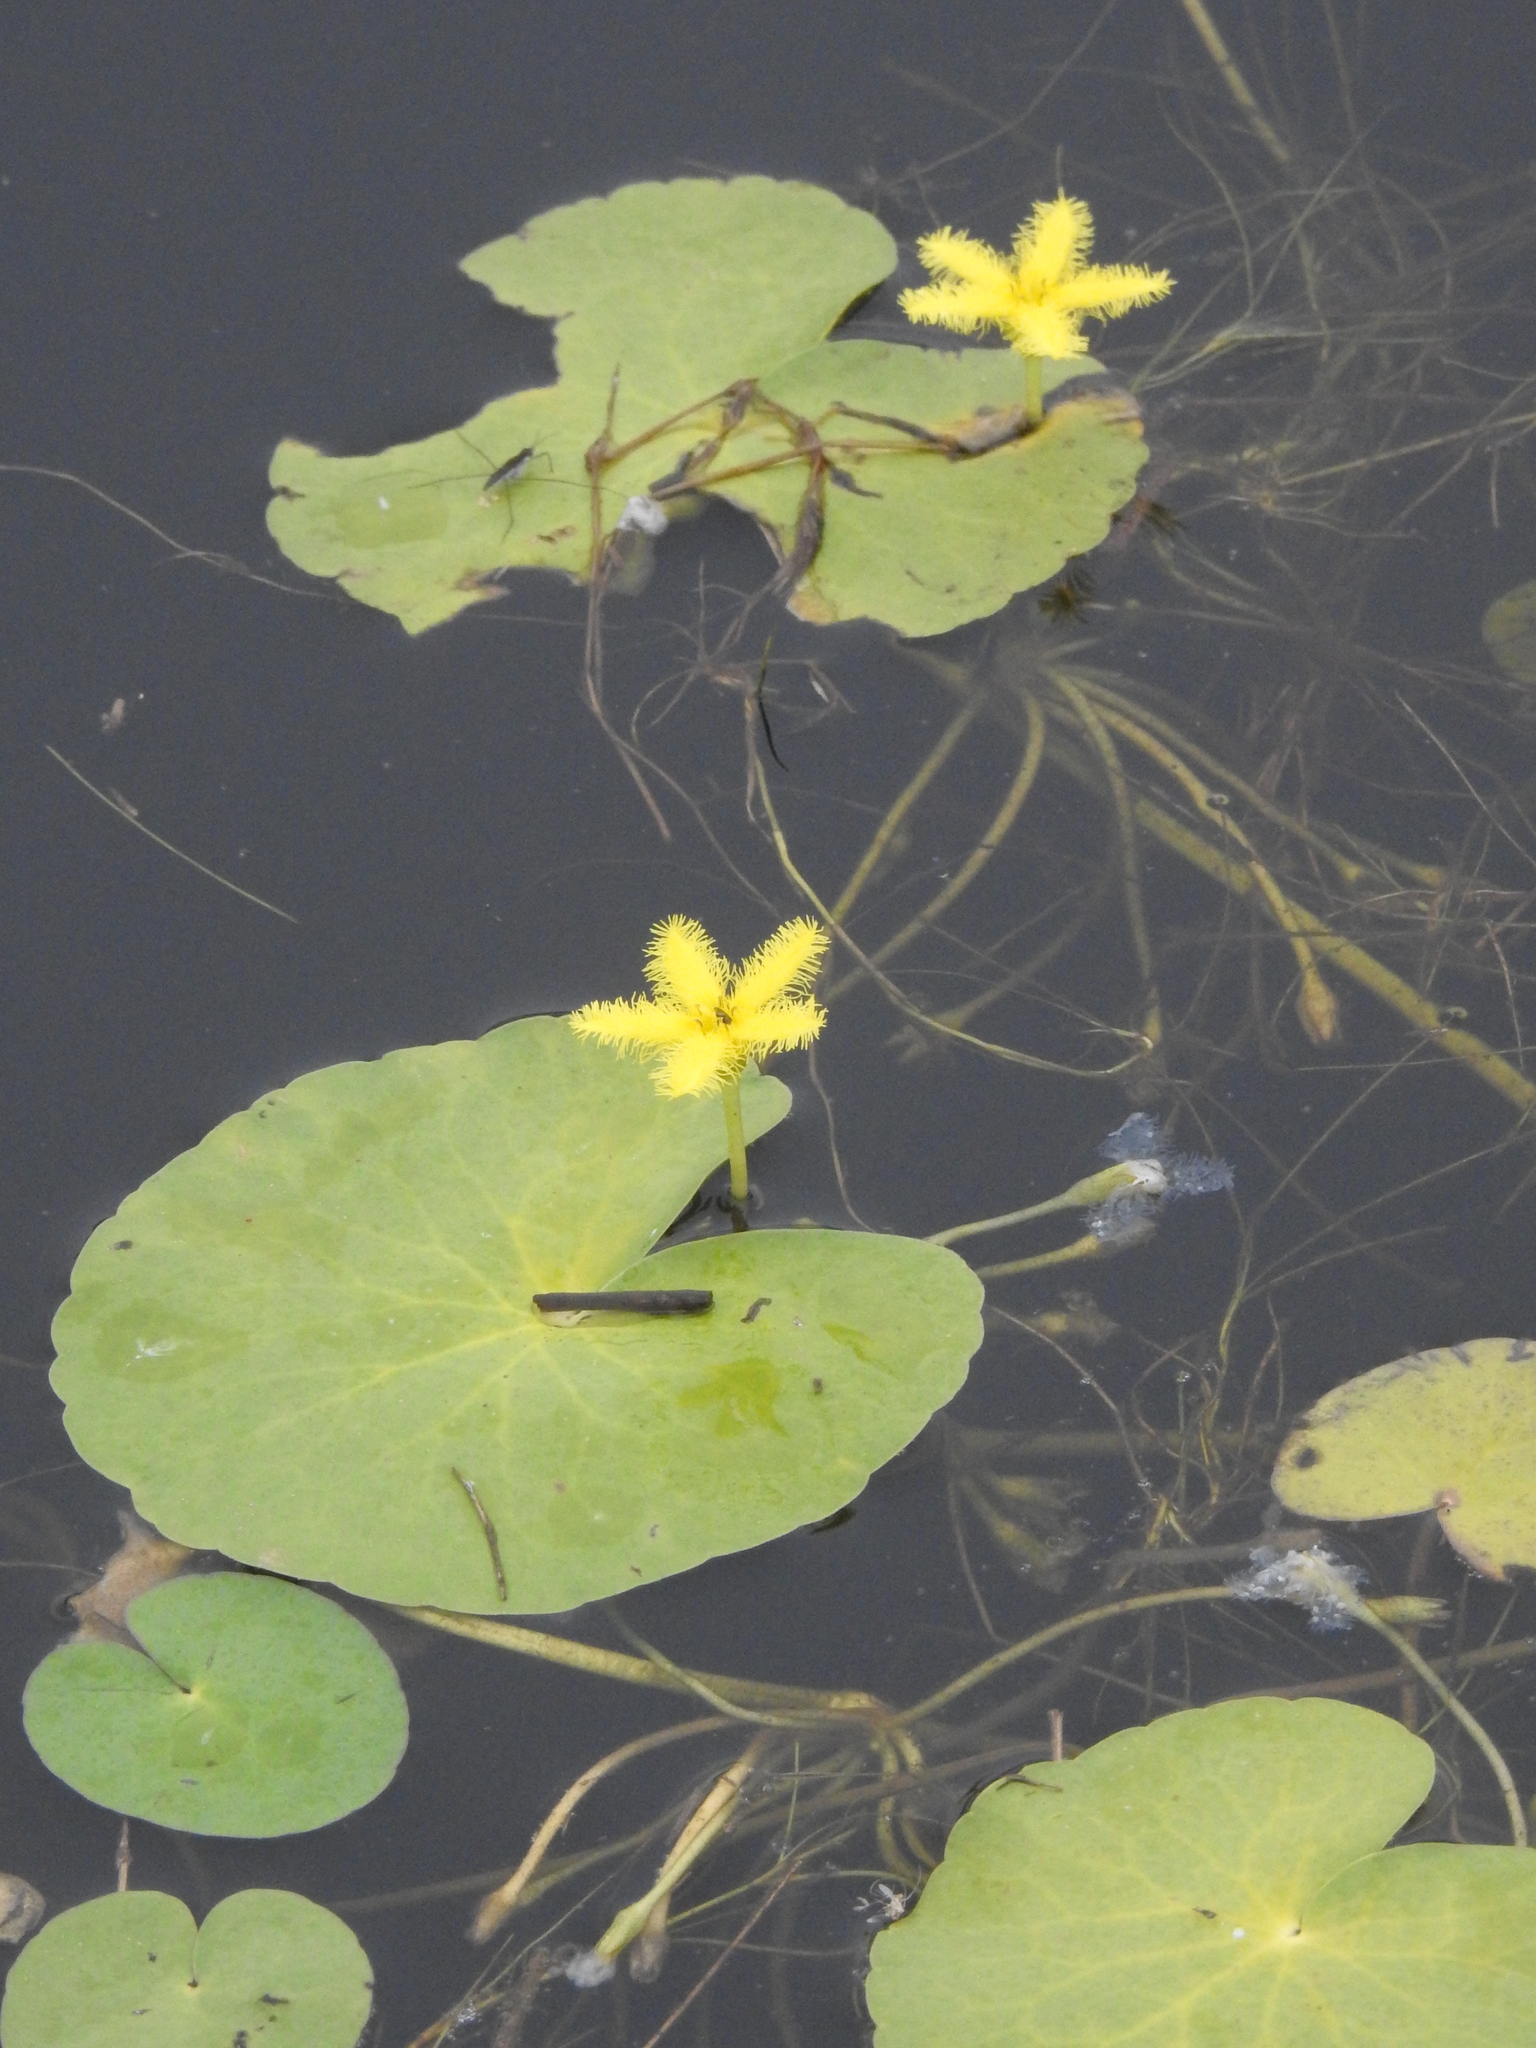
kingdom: Plantae
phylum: Tracheophyta
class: Magnoliopsida
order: Asterales
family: Menyanthaceae
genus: Nymphoides
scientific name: Nymphoides thunbergiana
